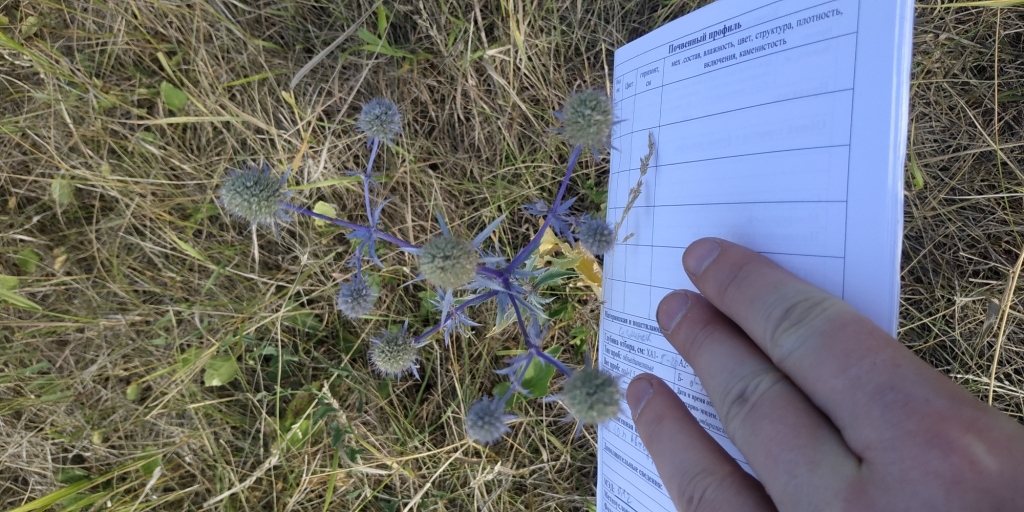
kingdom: Plantae
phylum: Tracheophyta
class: Magnoliopsida
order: Apiales
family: Apiaceae
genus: Eryngium
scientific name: Eryngium planum
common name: Blue eryngo
